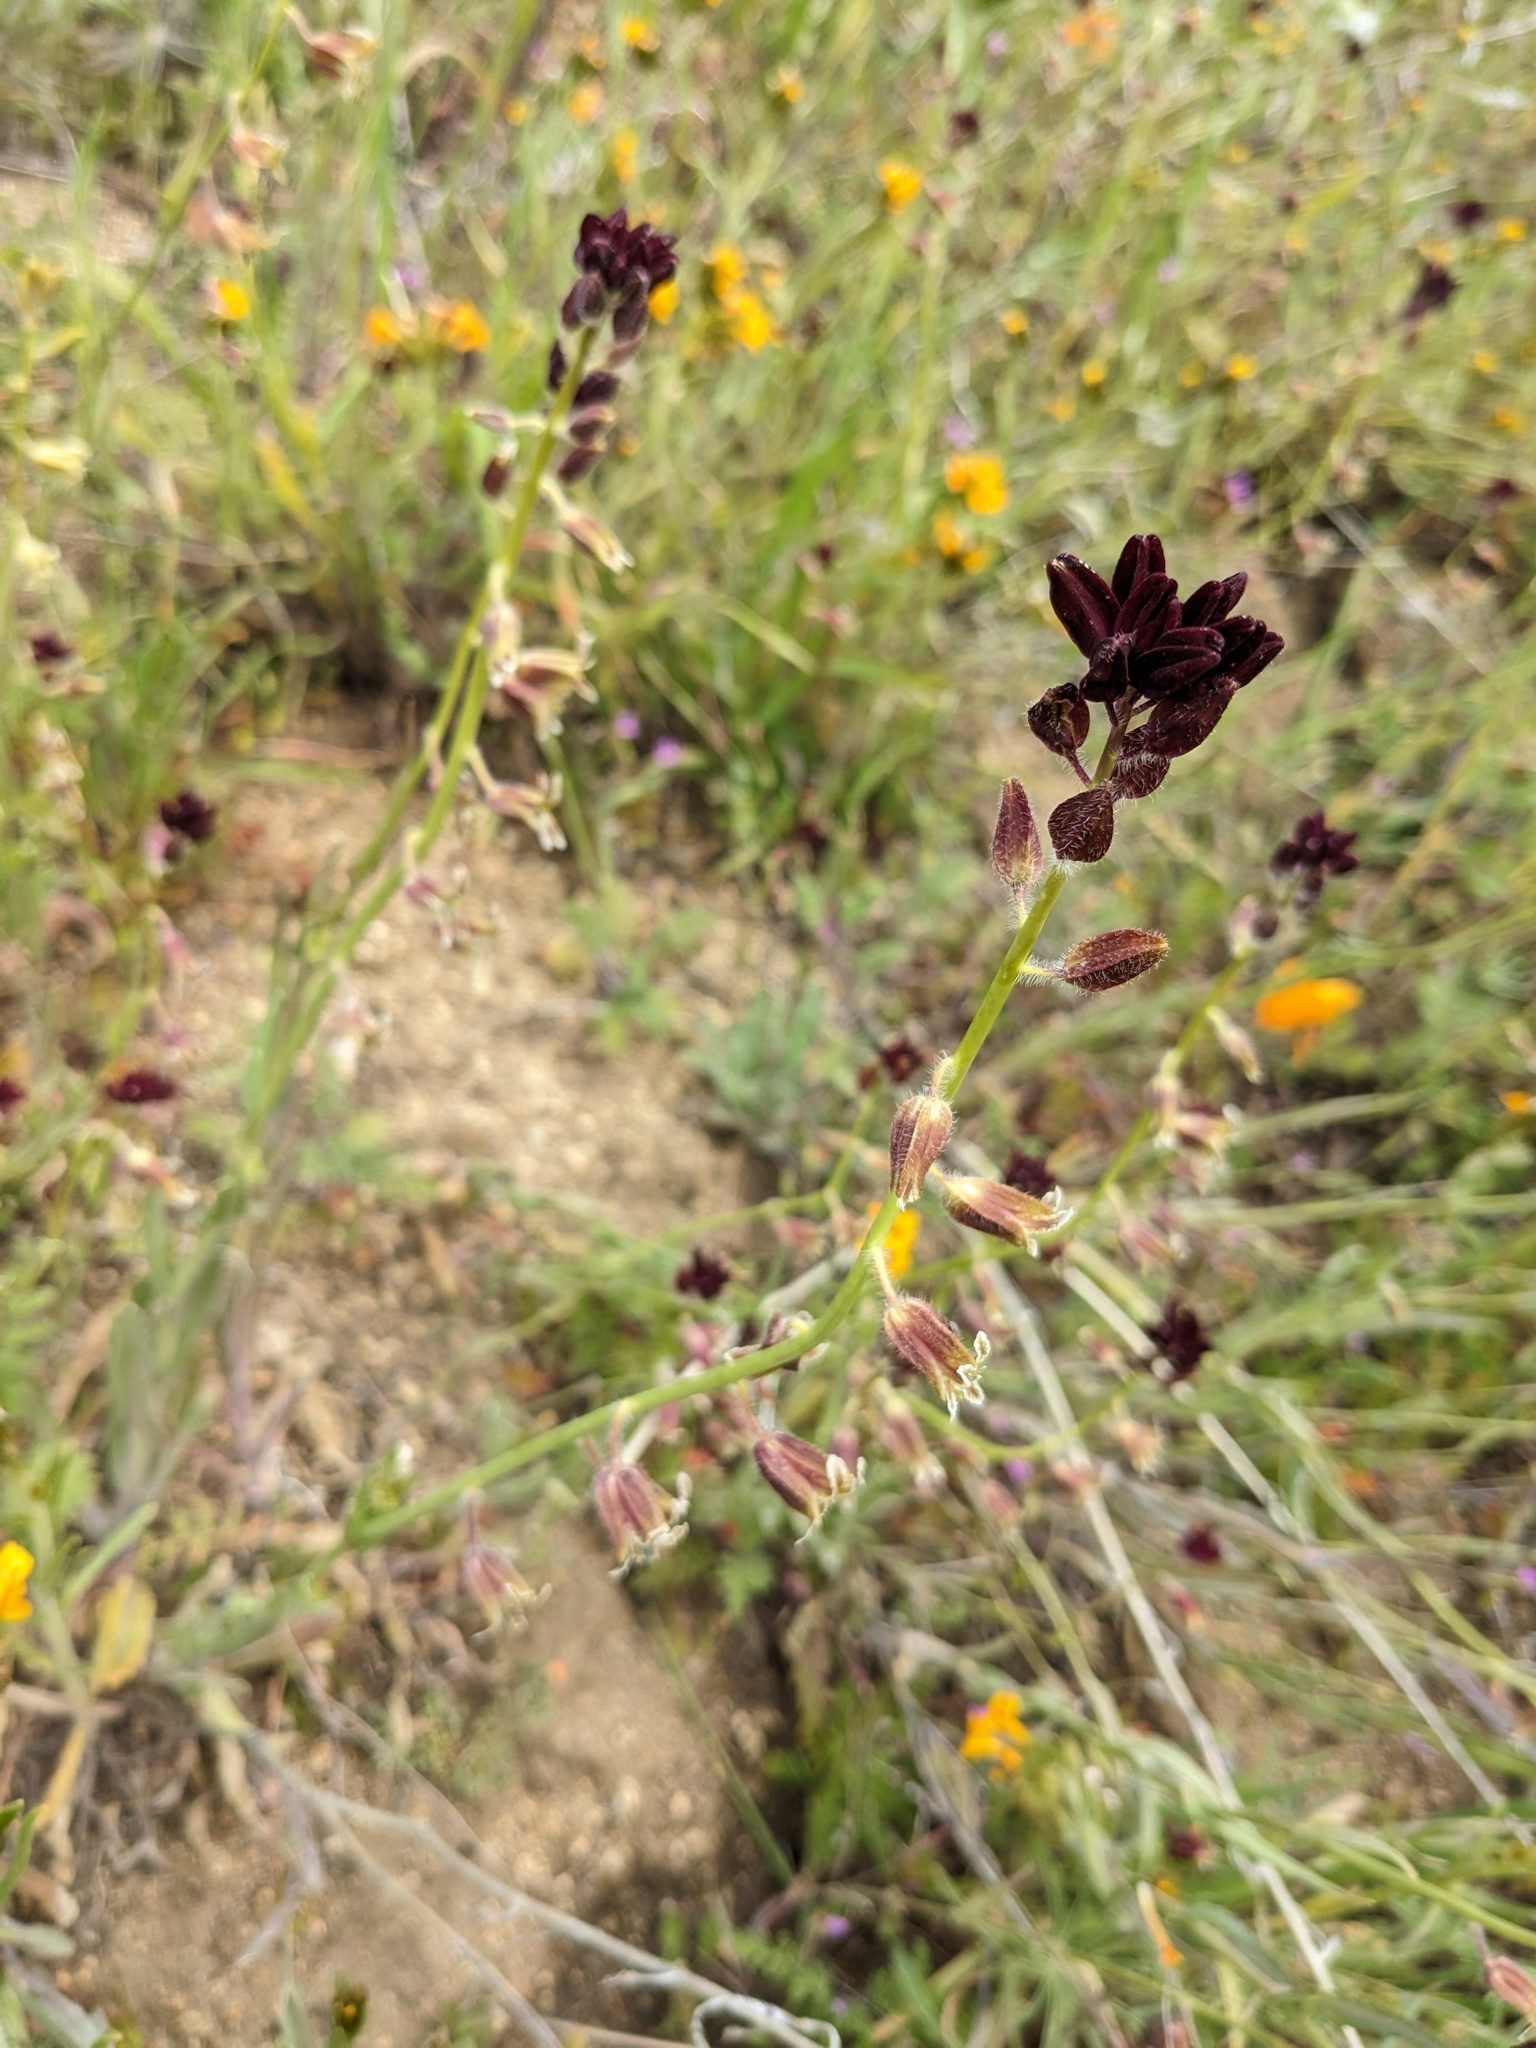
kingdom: Plantae
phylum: Tracheophyta
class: Magnoliopsida
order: Brassicales
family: Brassicaceae
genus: Streptanthus
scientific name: Streptanthus coulteri
